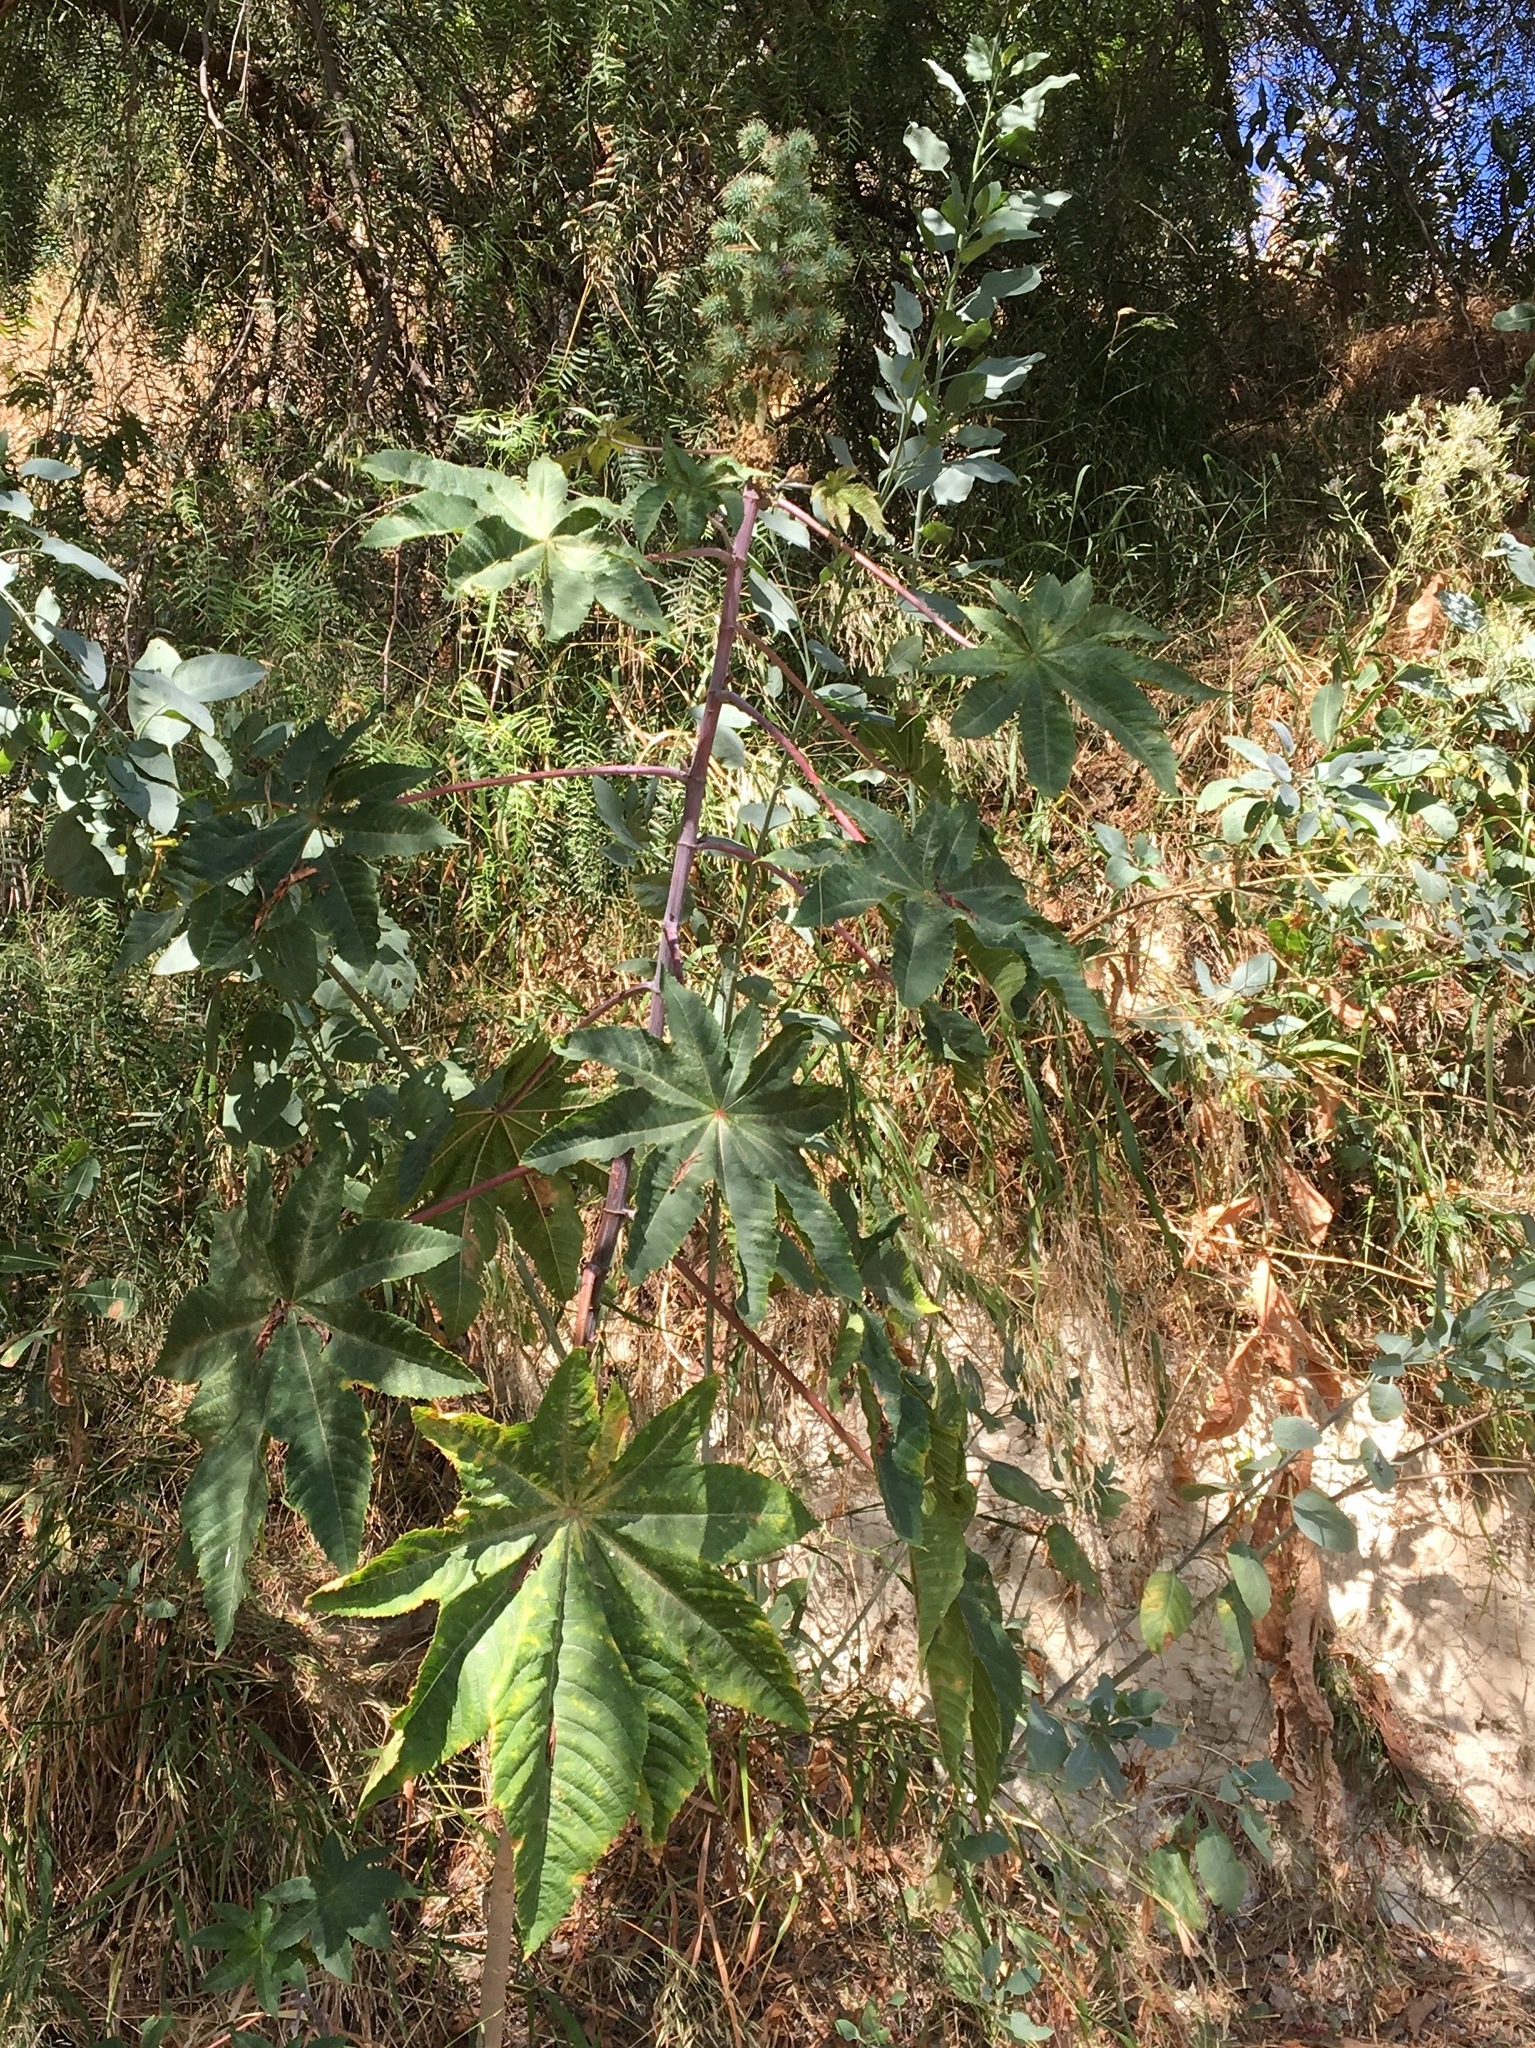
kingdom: Plantae
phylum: Tracheophyta
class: Magnoliopsida
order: Malpighiales
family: Euphorbiaceae
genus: Ricinus
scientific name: Ricinus communis
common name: Castor-oil-plant
